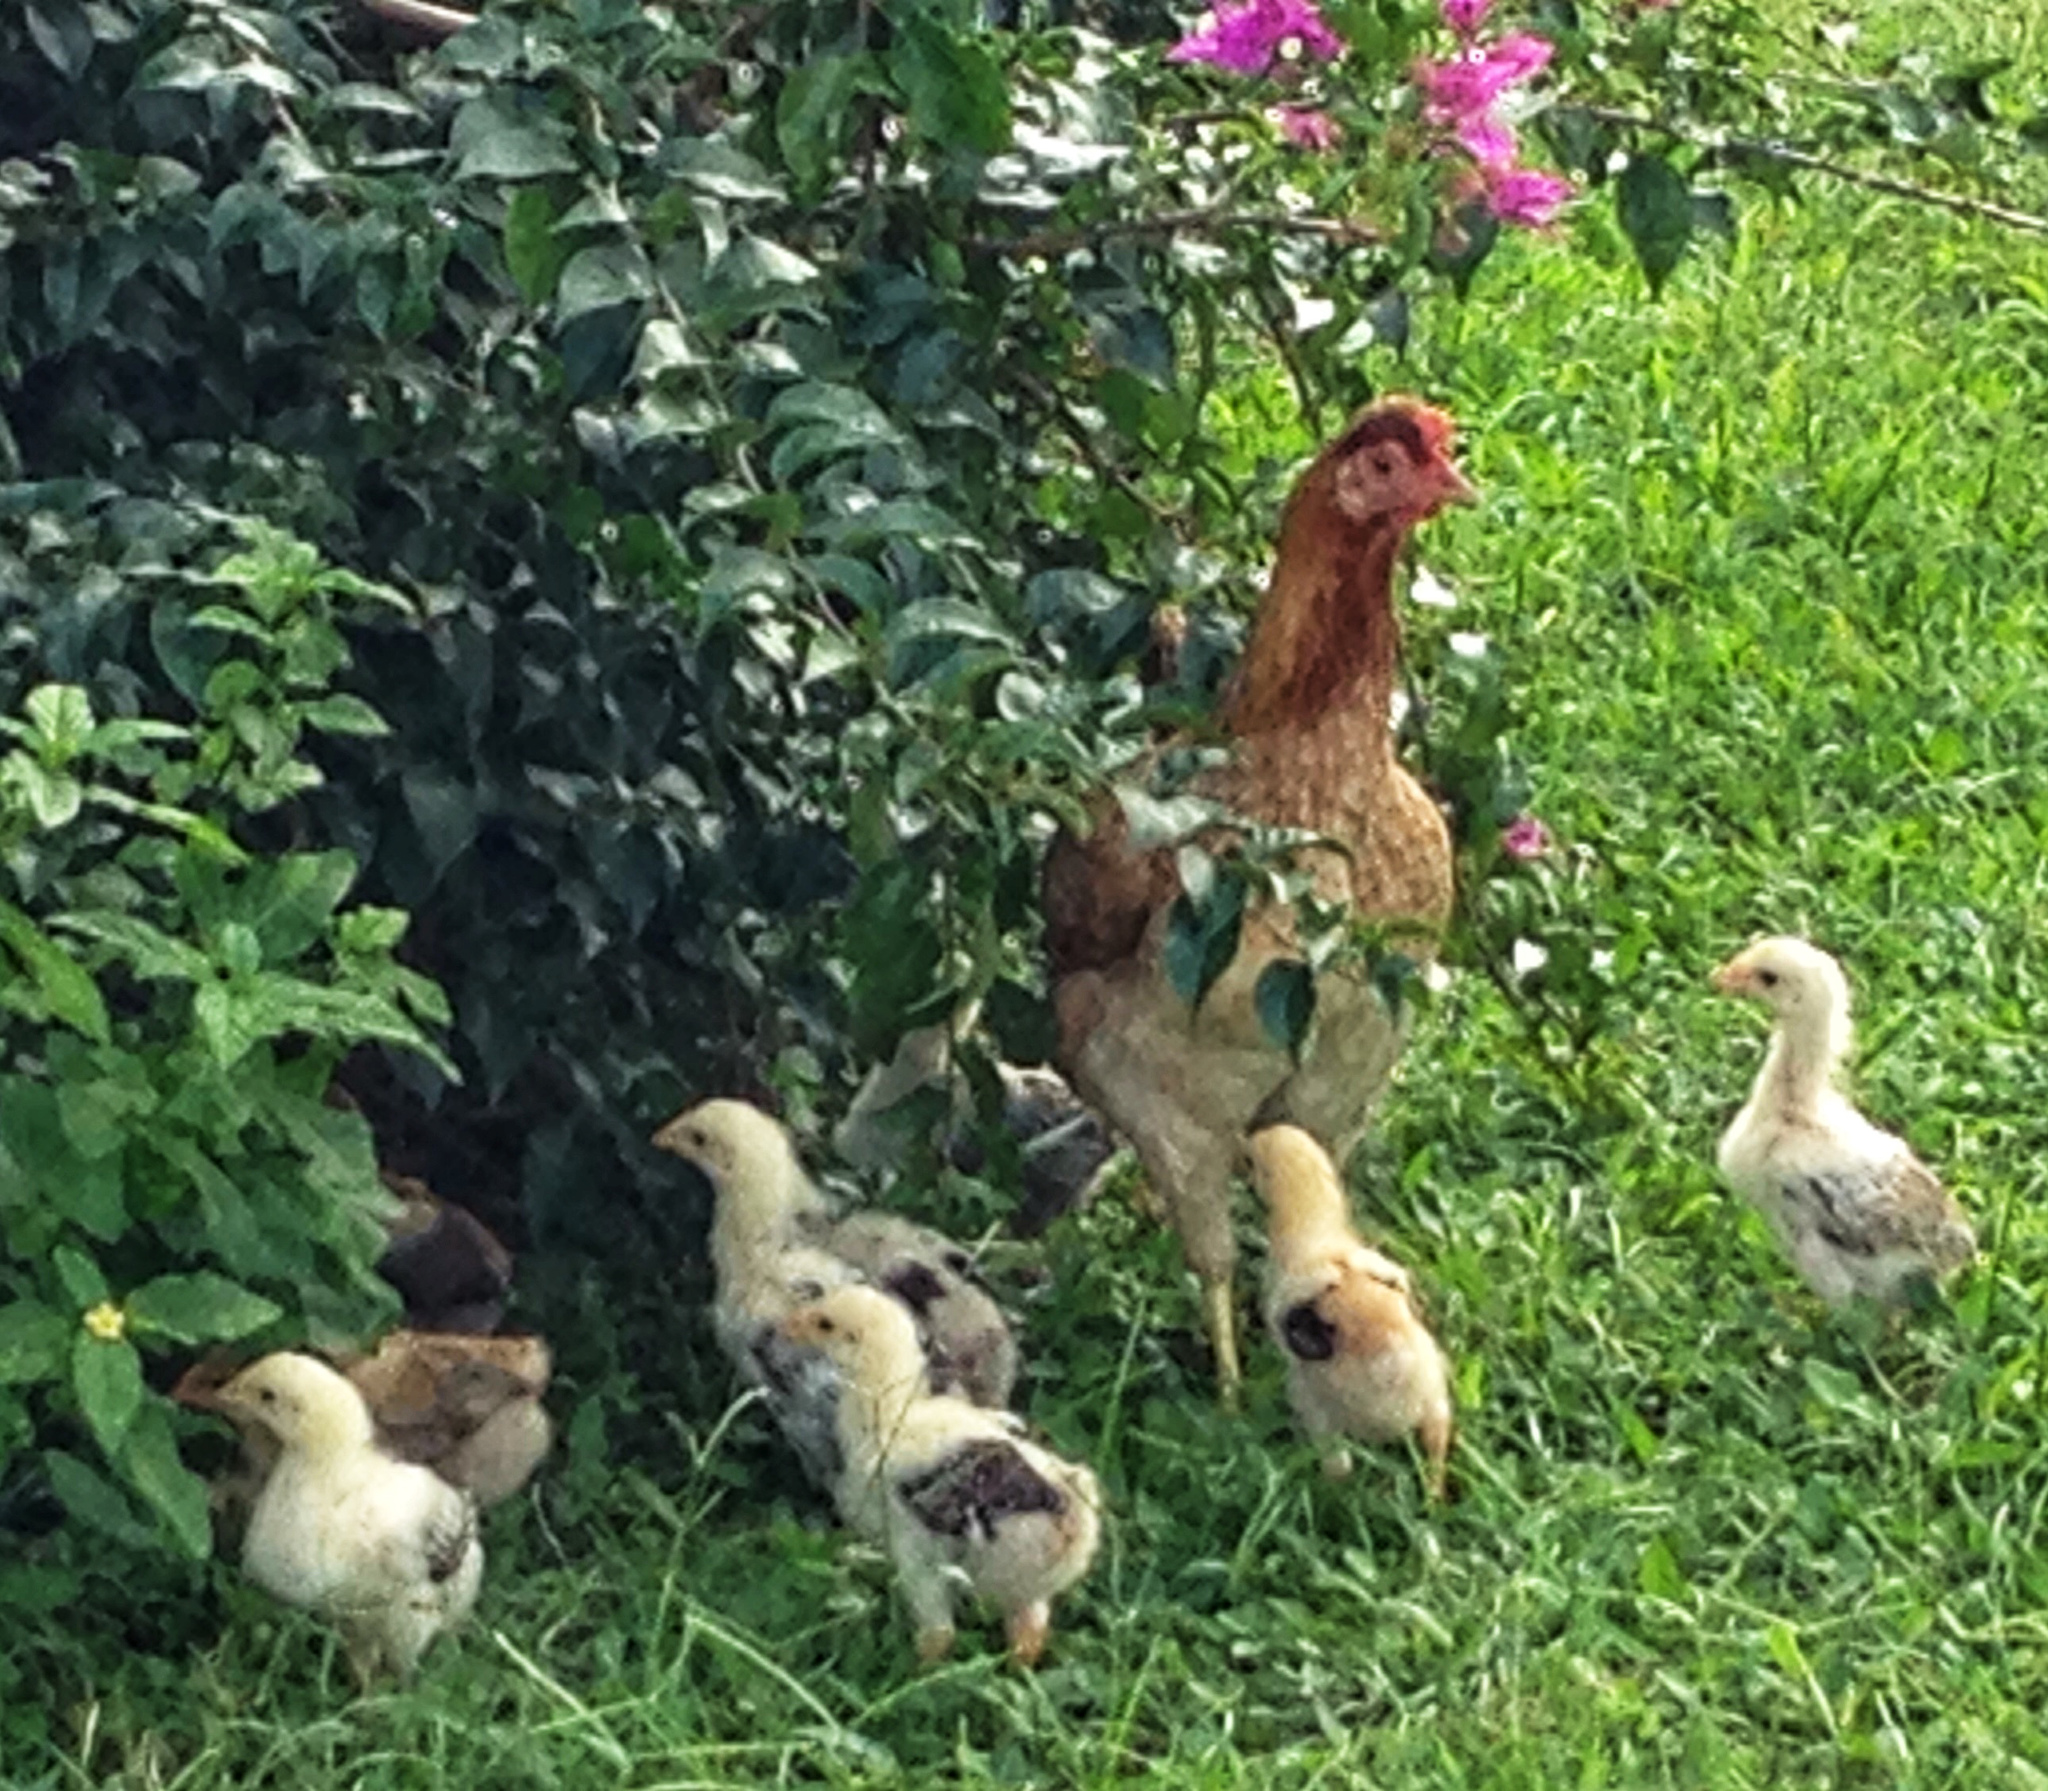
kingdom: Animalia
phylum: Chordata
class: Aves
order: Galliformes
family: Phasianidae
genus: Gallus
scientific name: Gallus gallus
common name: Red junglefowl
